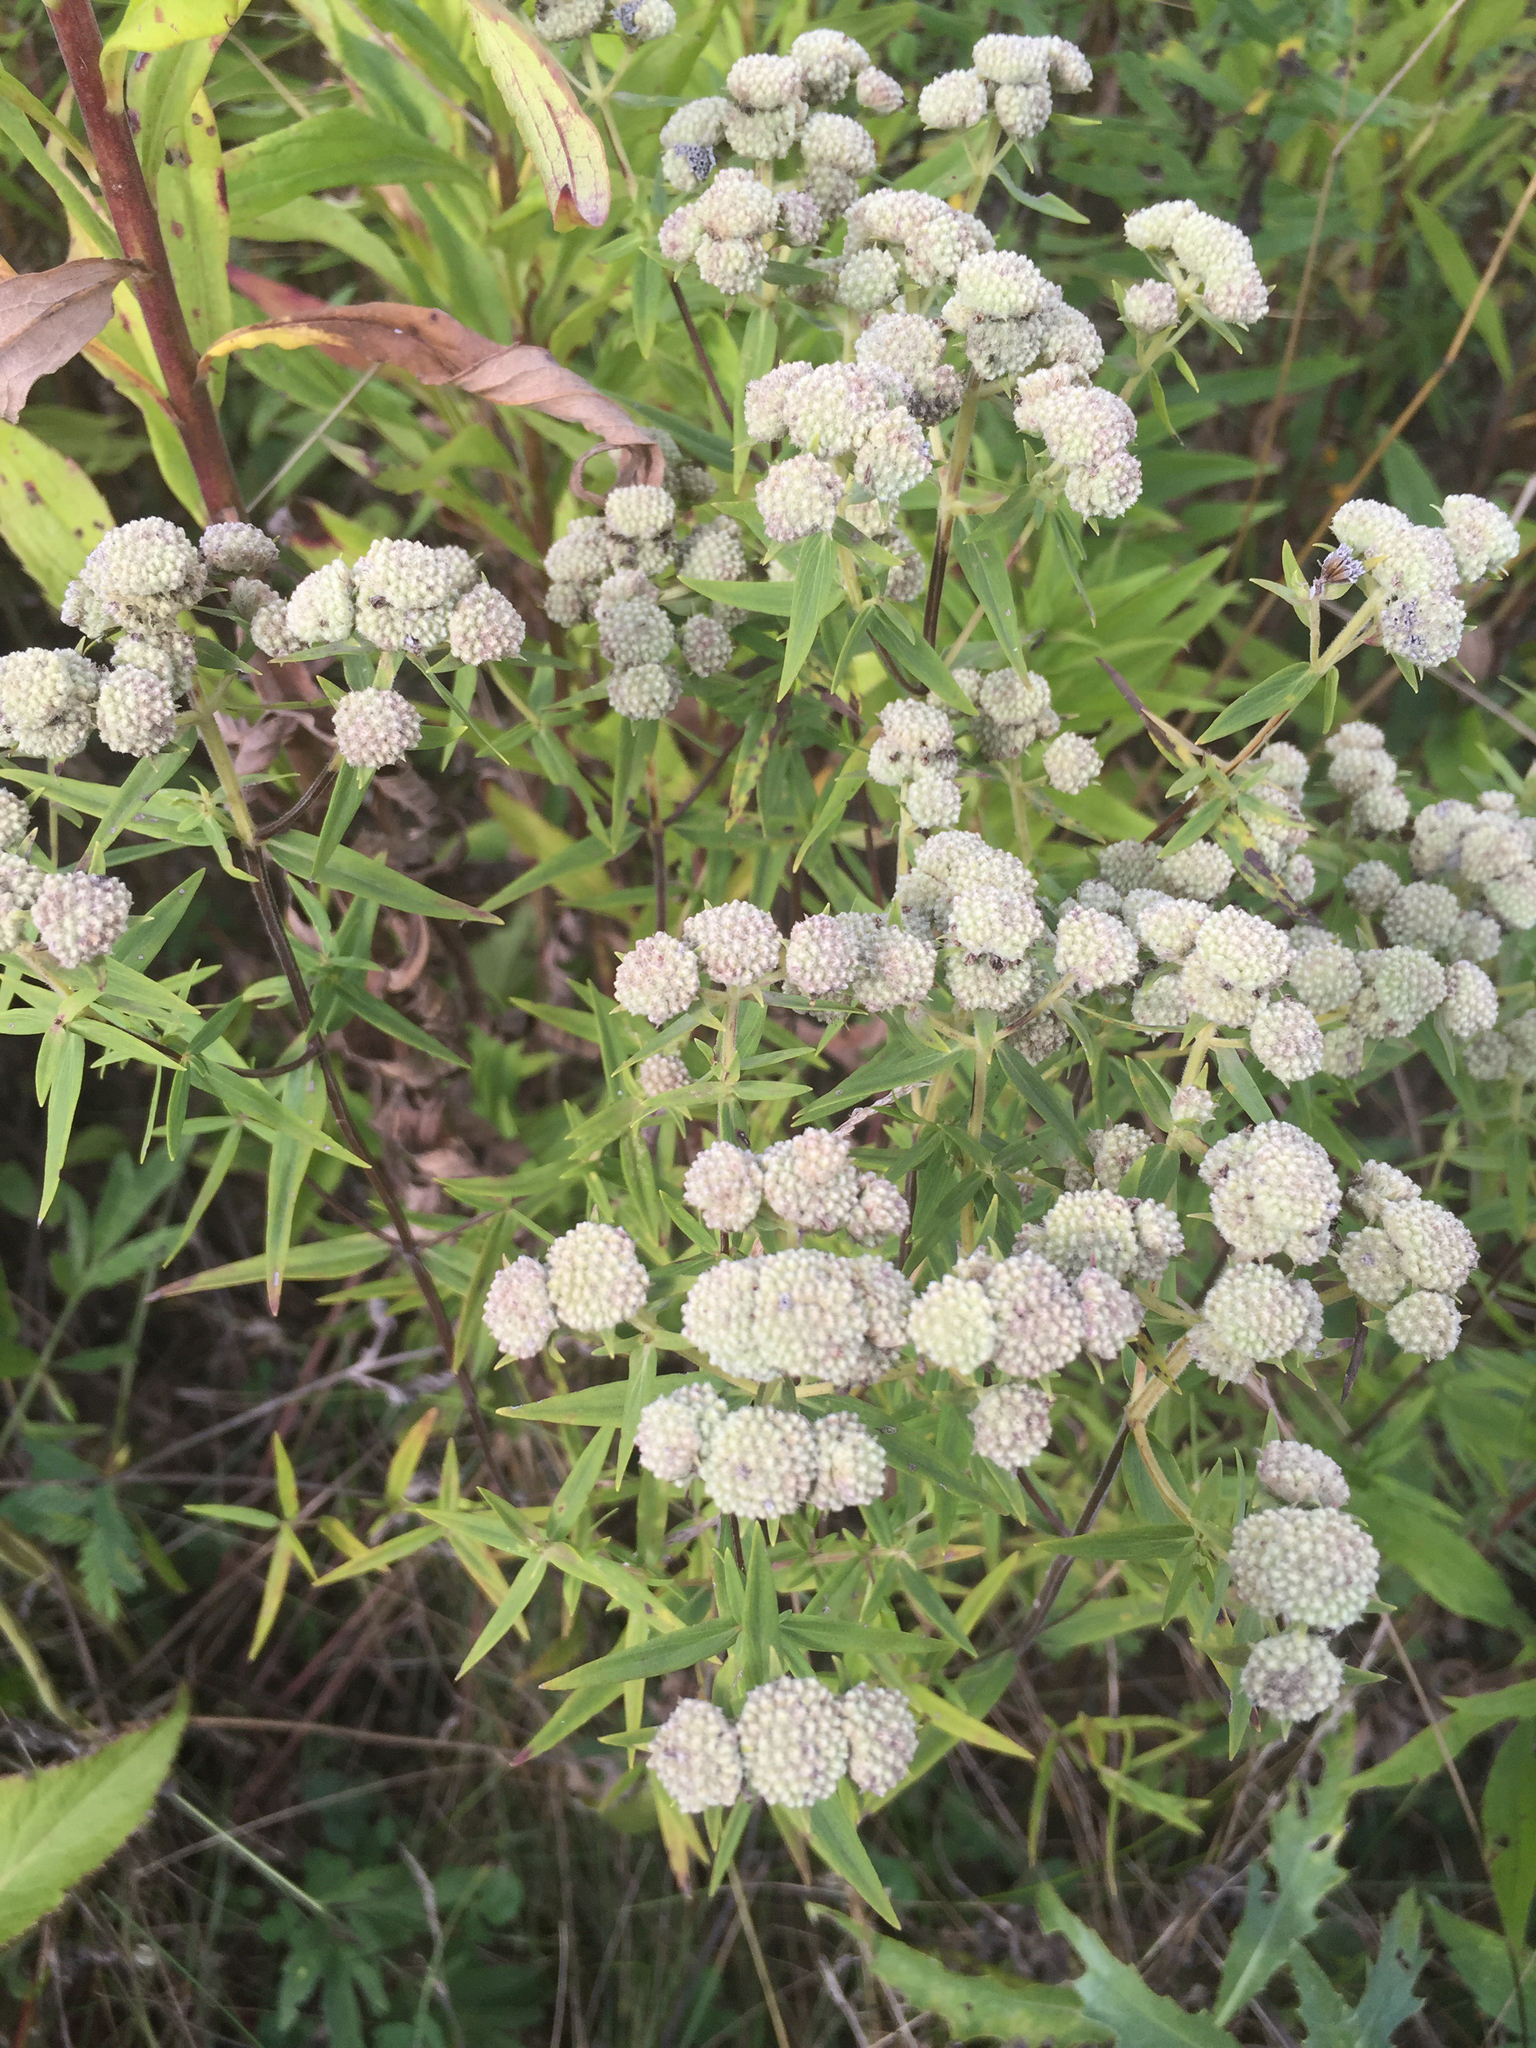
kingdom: Plantae
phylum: Tracheophyta
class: Magnoliopsida
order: Lamiales
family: Lamiaceae
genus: Pycnanthemum
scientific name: Pycnanthemum virginianum
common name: Virginia mountain-mint
